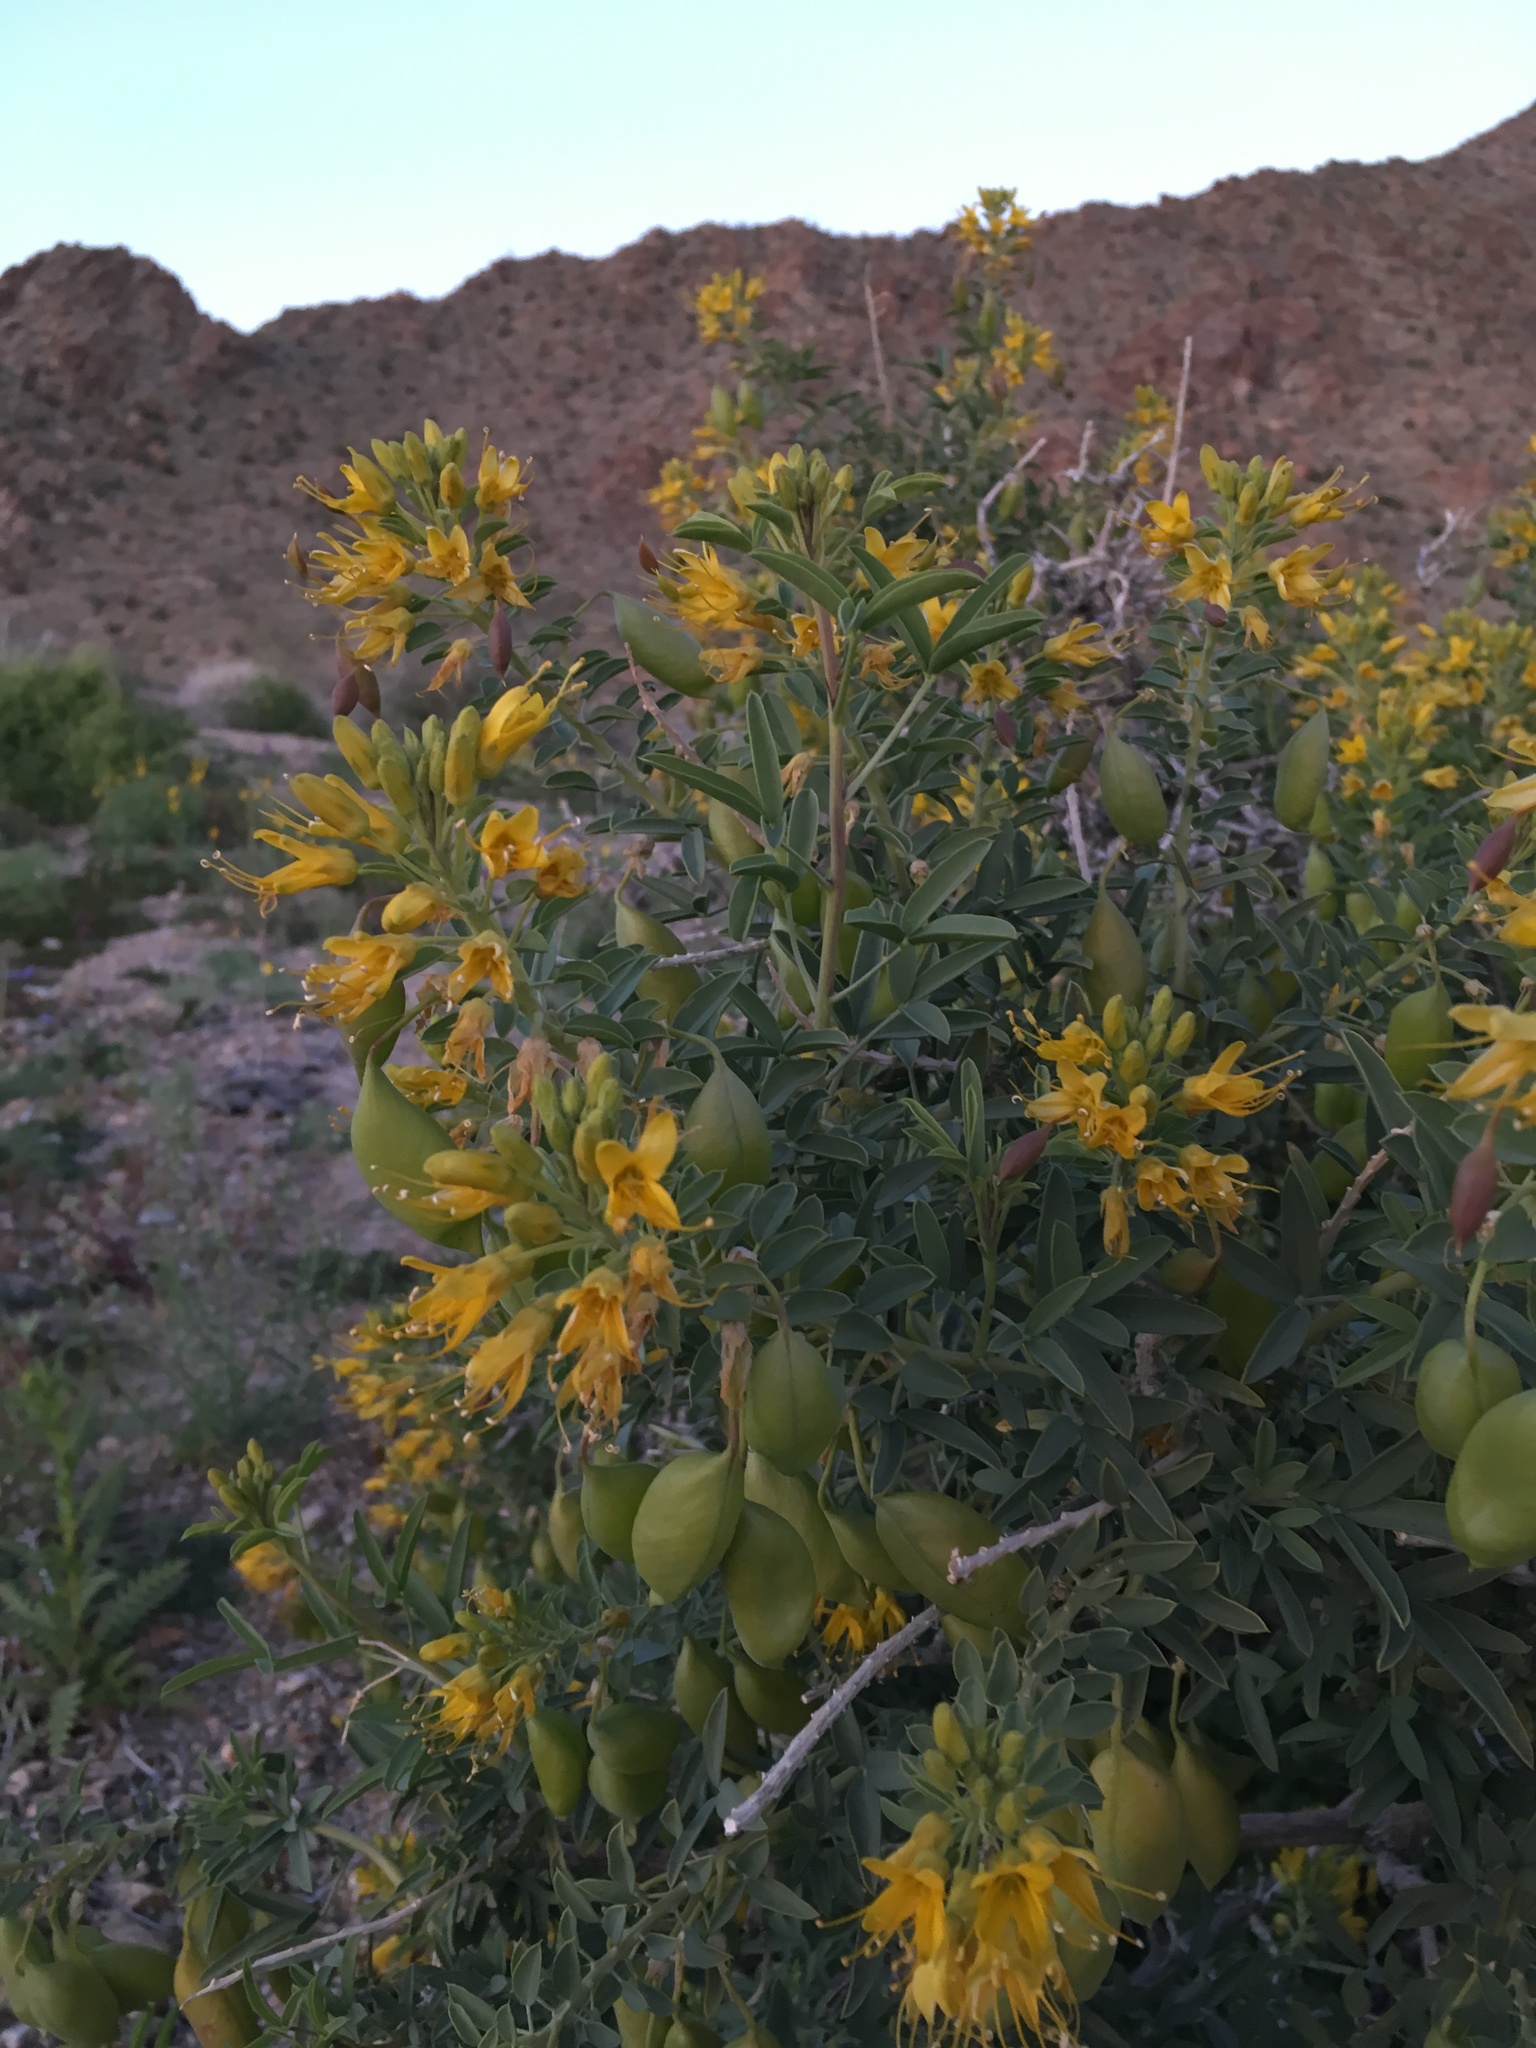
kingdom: Plantae
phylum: Tracheophyta
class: Magnoliopsida
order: Brassicales
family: Cleomaceae
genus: Cleomella
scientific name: Cleomella arborea
